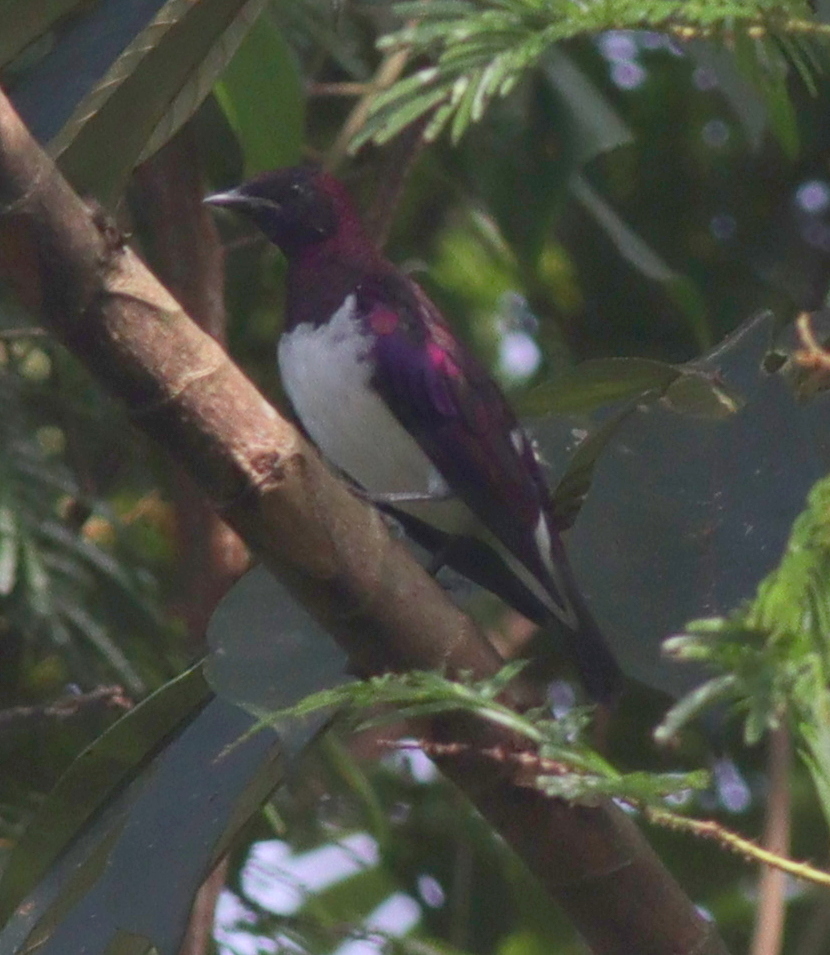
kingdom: Animalia
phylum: Chordata
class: Aves
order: Passeriformes
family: Sturnidae
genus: Cinnyricinclus
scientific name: Cinnyricinclus leucogaster
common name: Violet-backed starling
